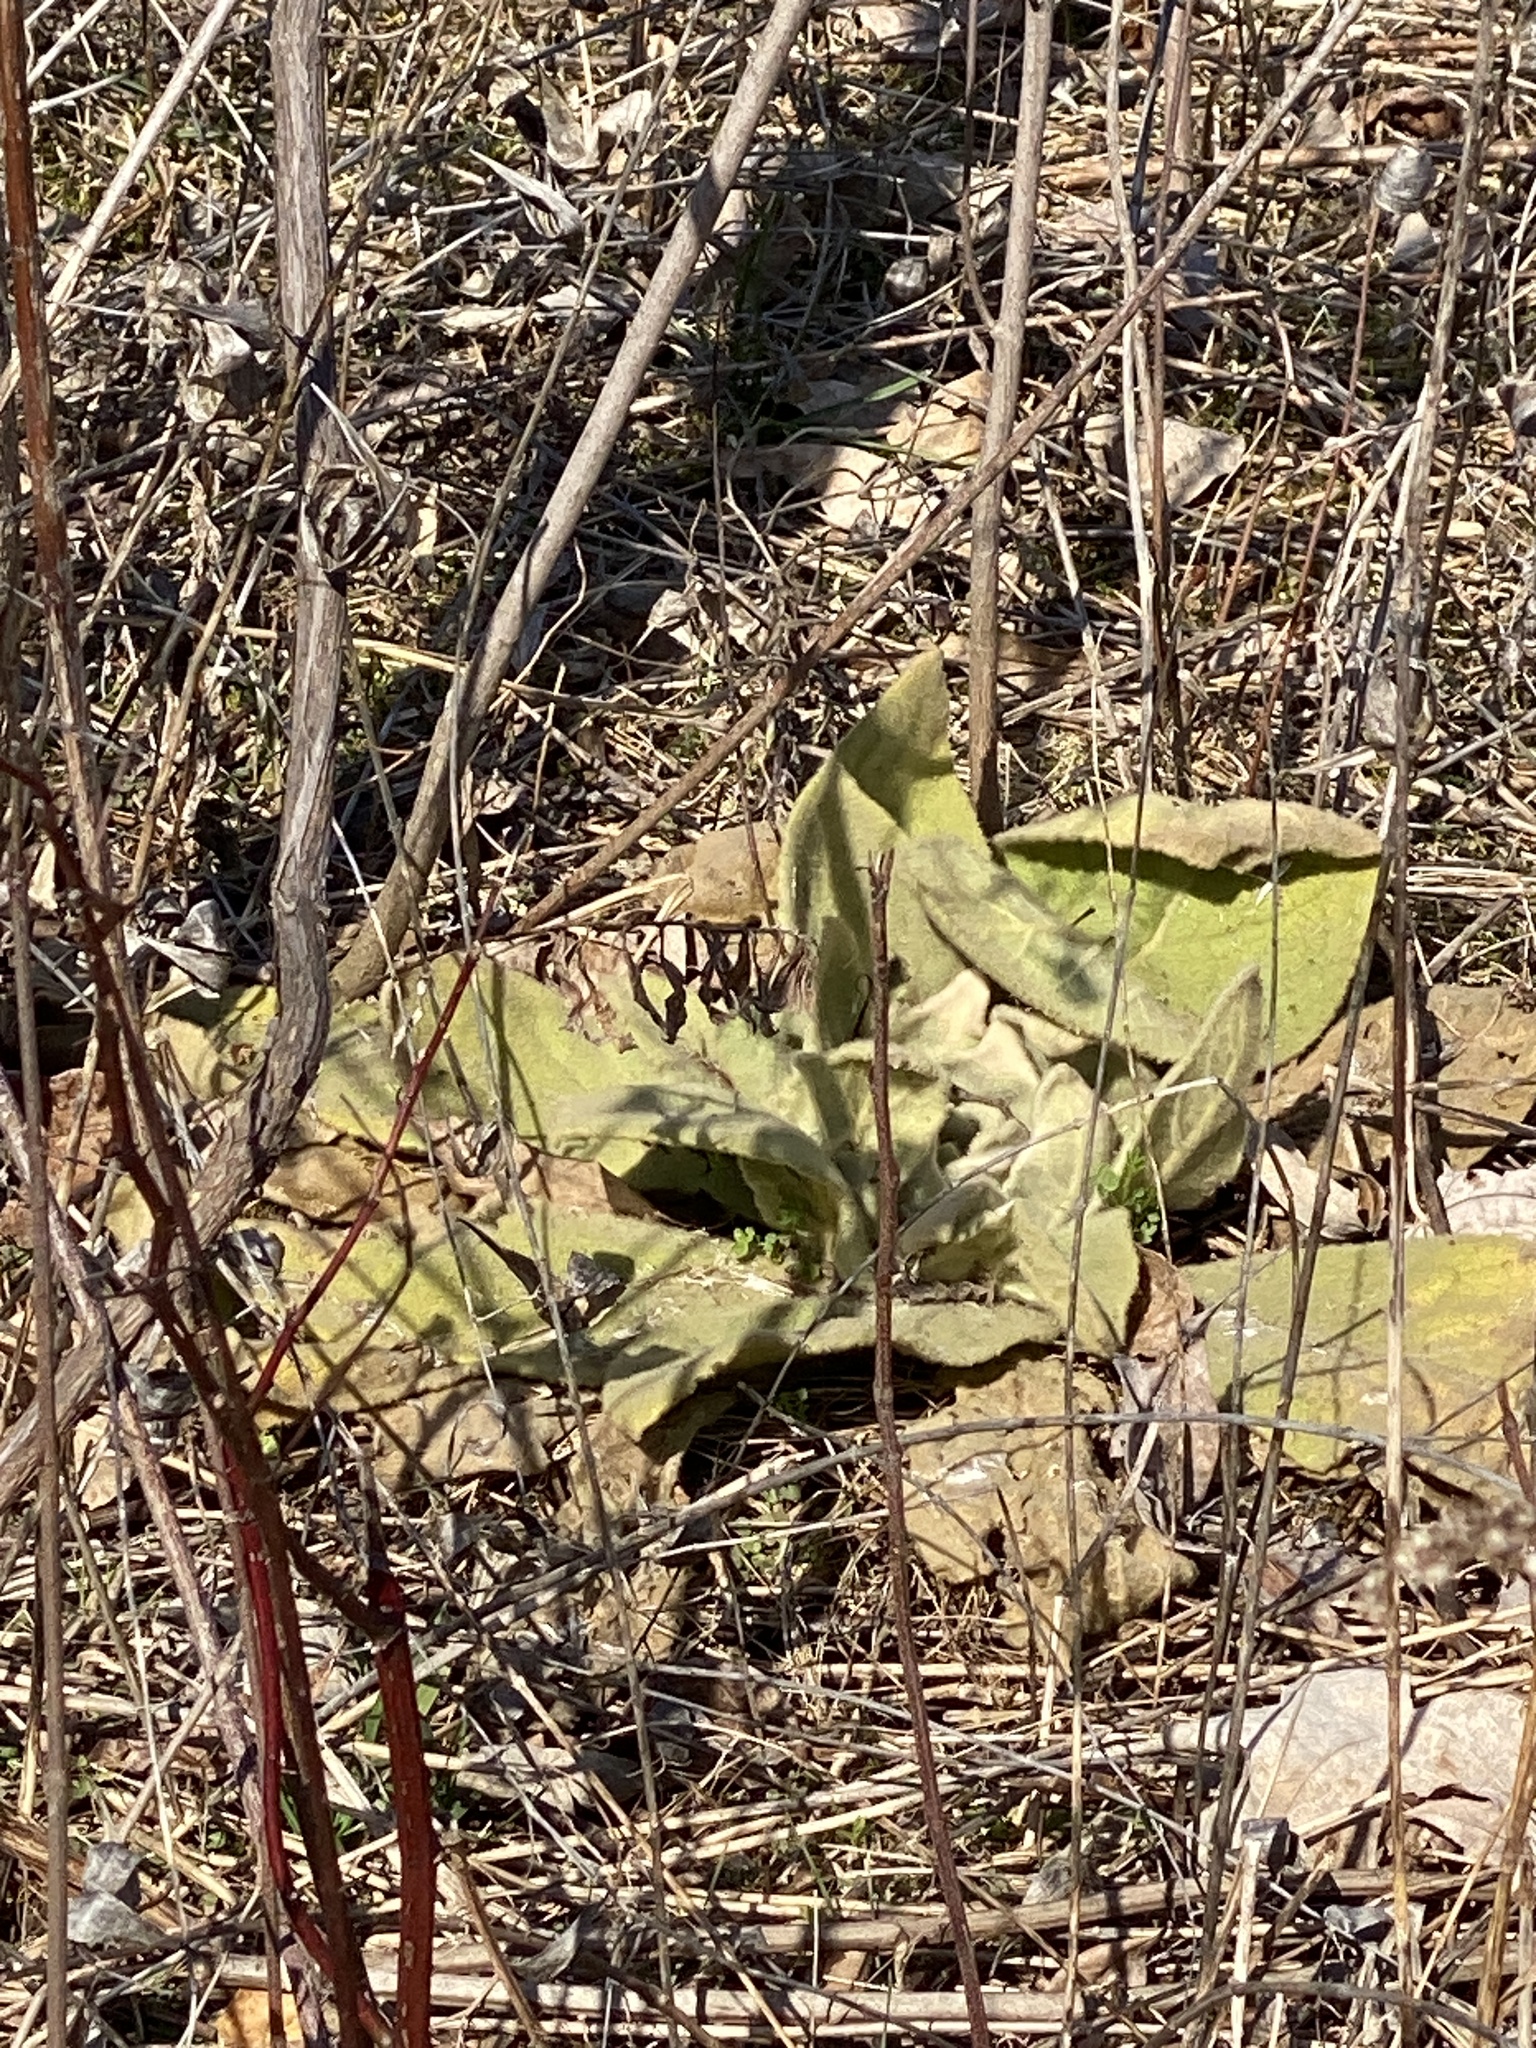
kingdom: Plantae
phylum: Tracheophyta
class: Magnoliopsida
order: Lamiales
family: Scrophulariaceae
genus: Verbascum
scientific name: Verbascum thapsus
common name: Common mullein
